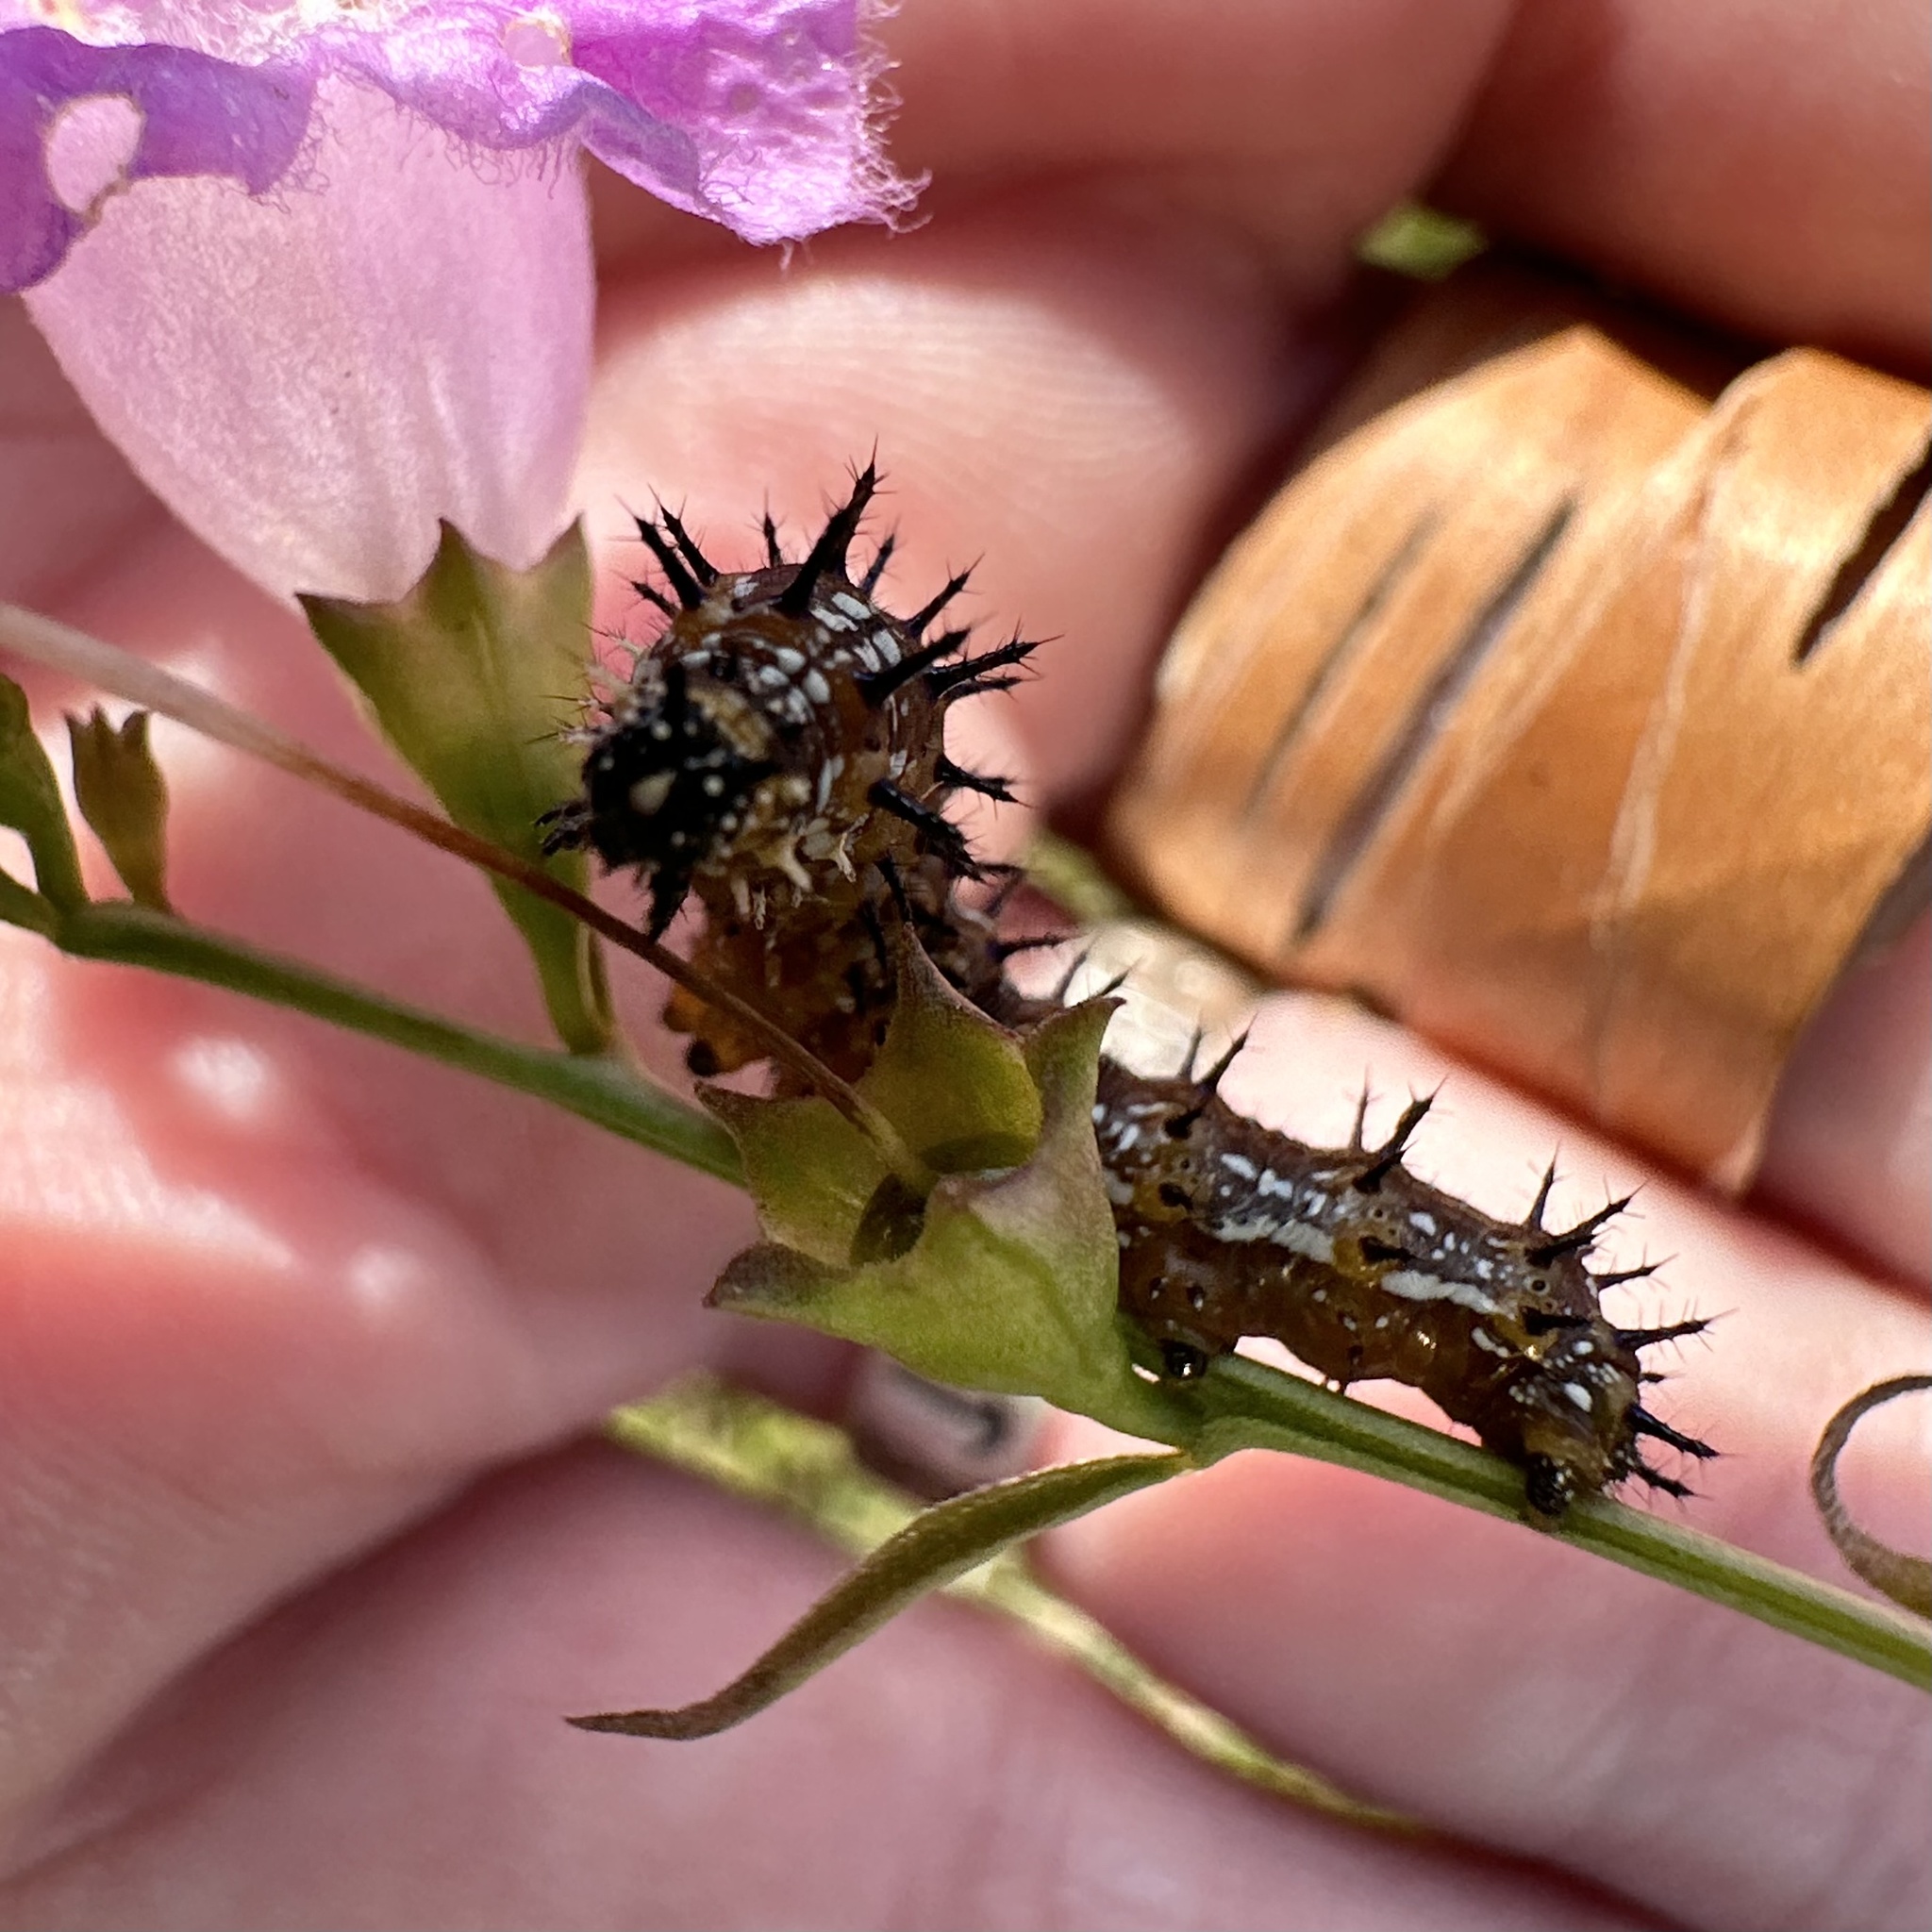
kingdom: Animalia
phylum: Arthropoda
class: Insecta
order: Lepidoptera
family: Nymphalidae
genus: Junonia
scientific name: Junonia coenia
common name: Common buckeye
